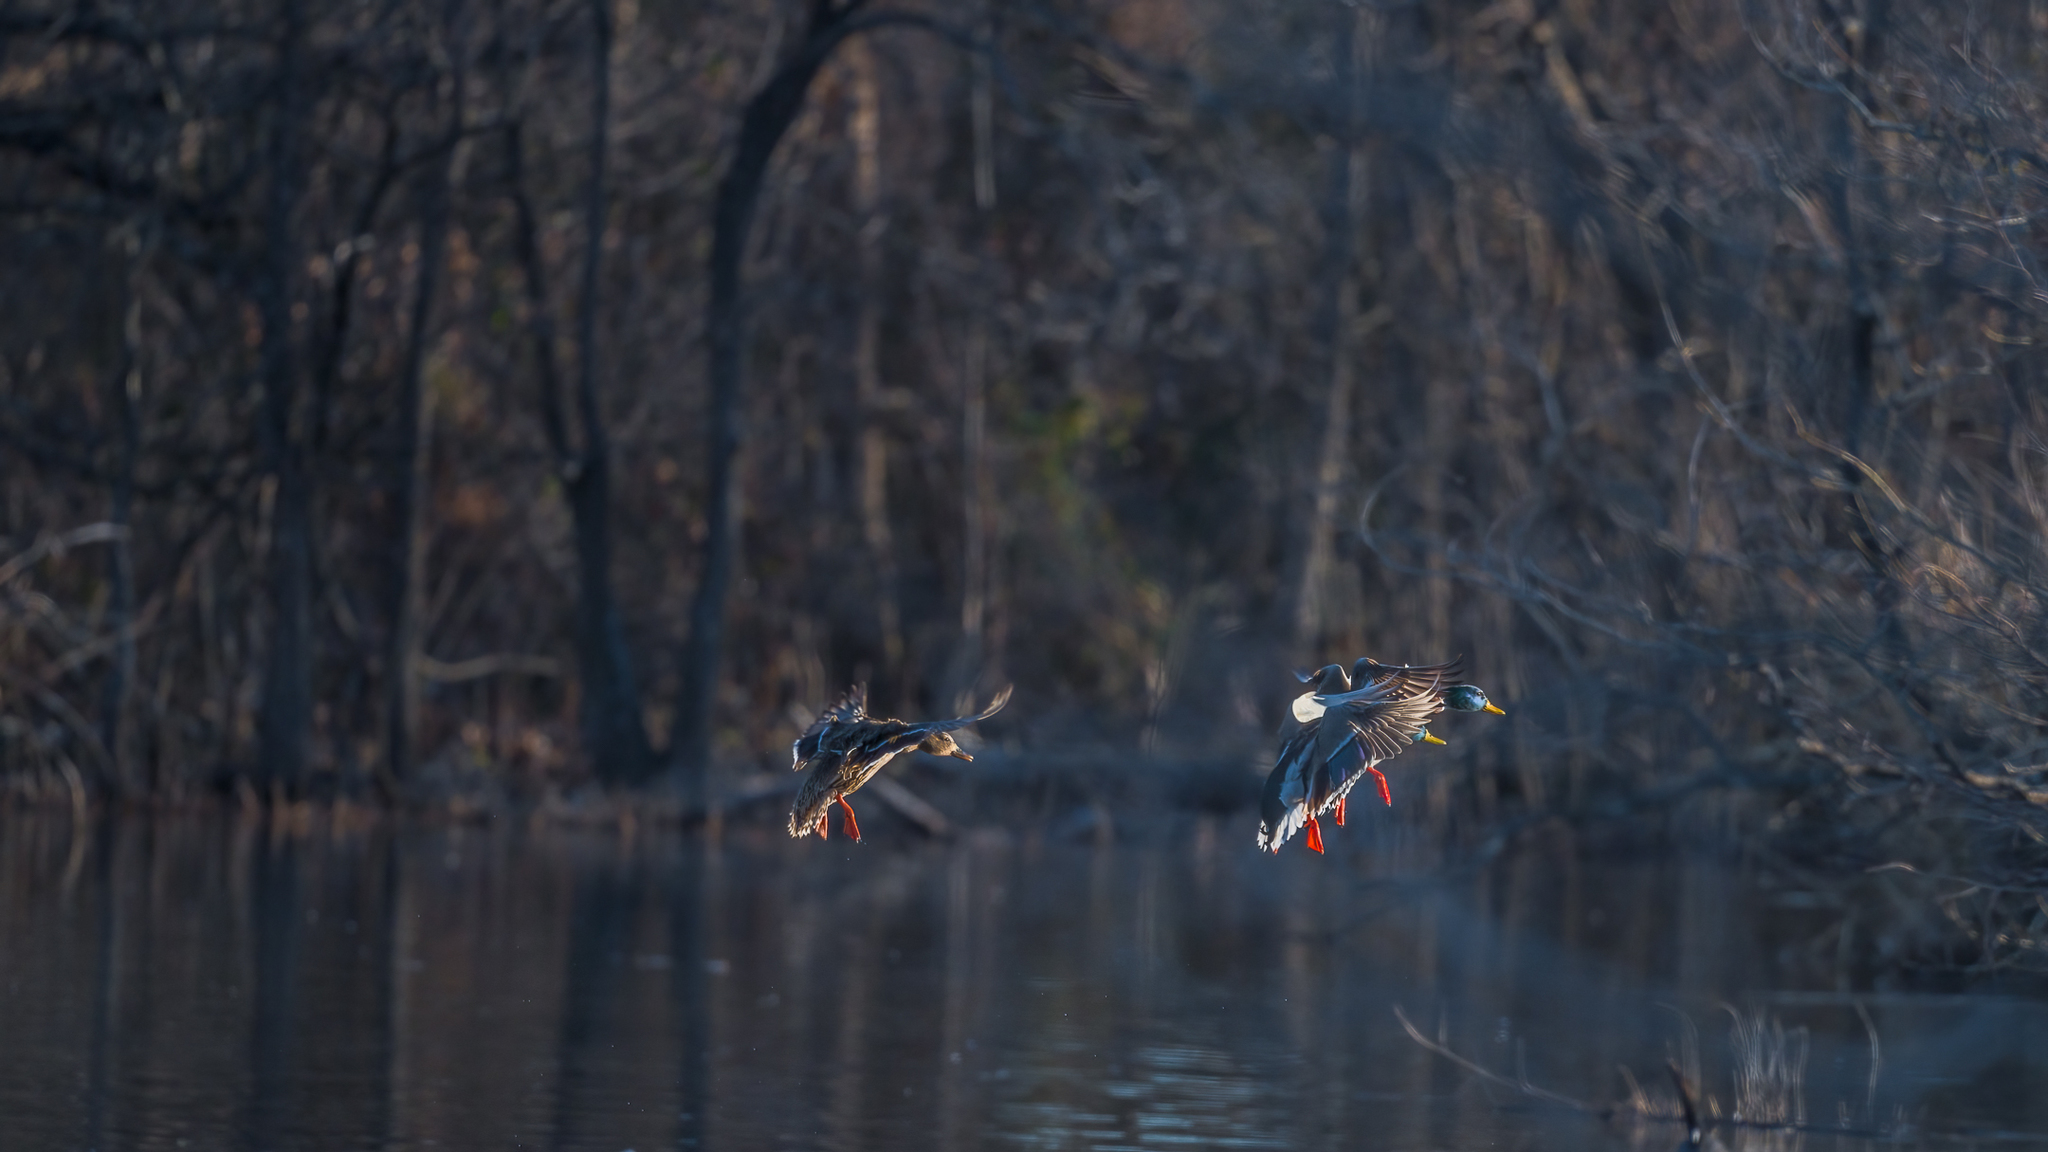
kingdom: Animalia
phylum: Chordata
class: Aves
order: Anseriformes
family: Anatidae
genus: Anas
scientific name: Anas platyrhynchos
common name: Mallard
